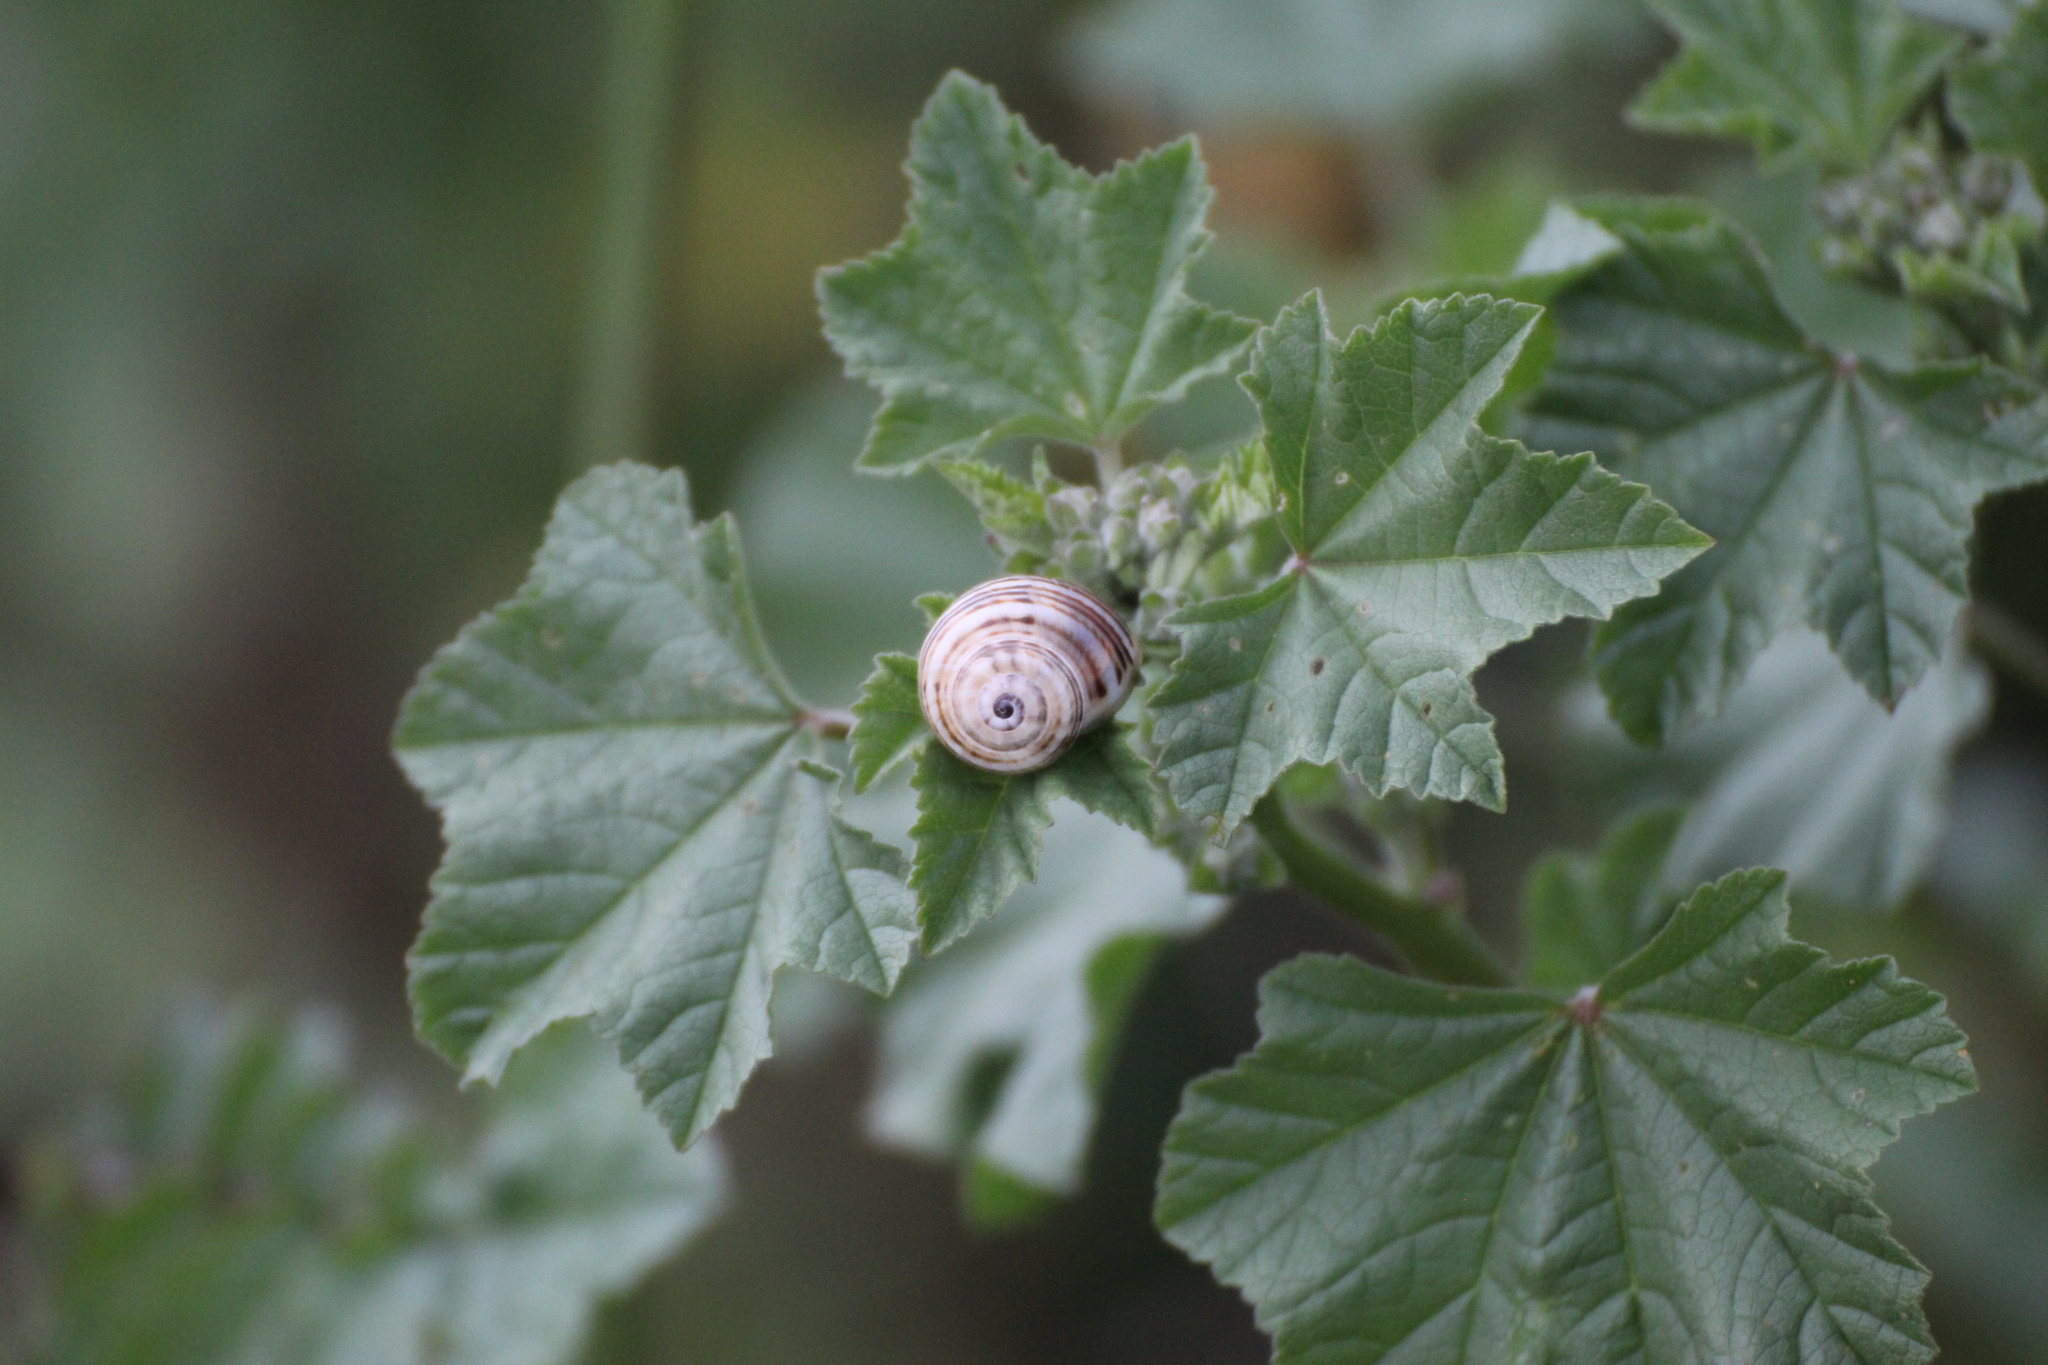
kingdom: Animalia
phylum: Mollusca
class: Gastropoda
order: Stylommatophora
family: Helicidae
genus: Theba
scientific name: Theba pisana
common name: White snail
